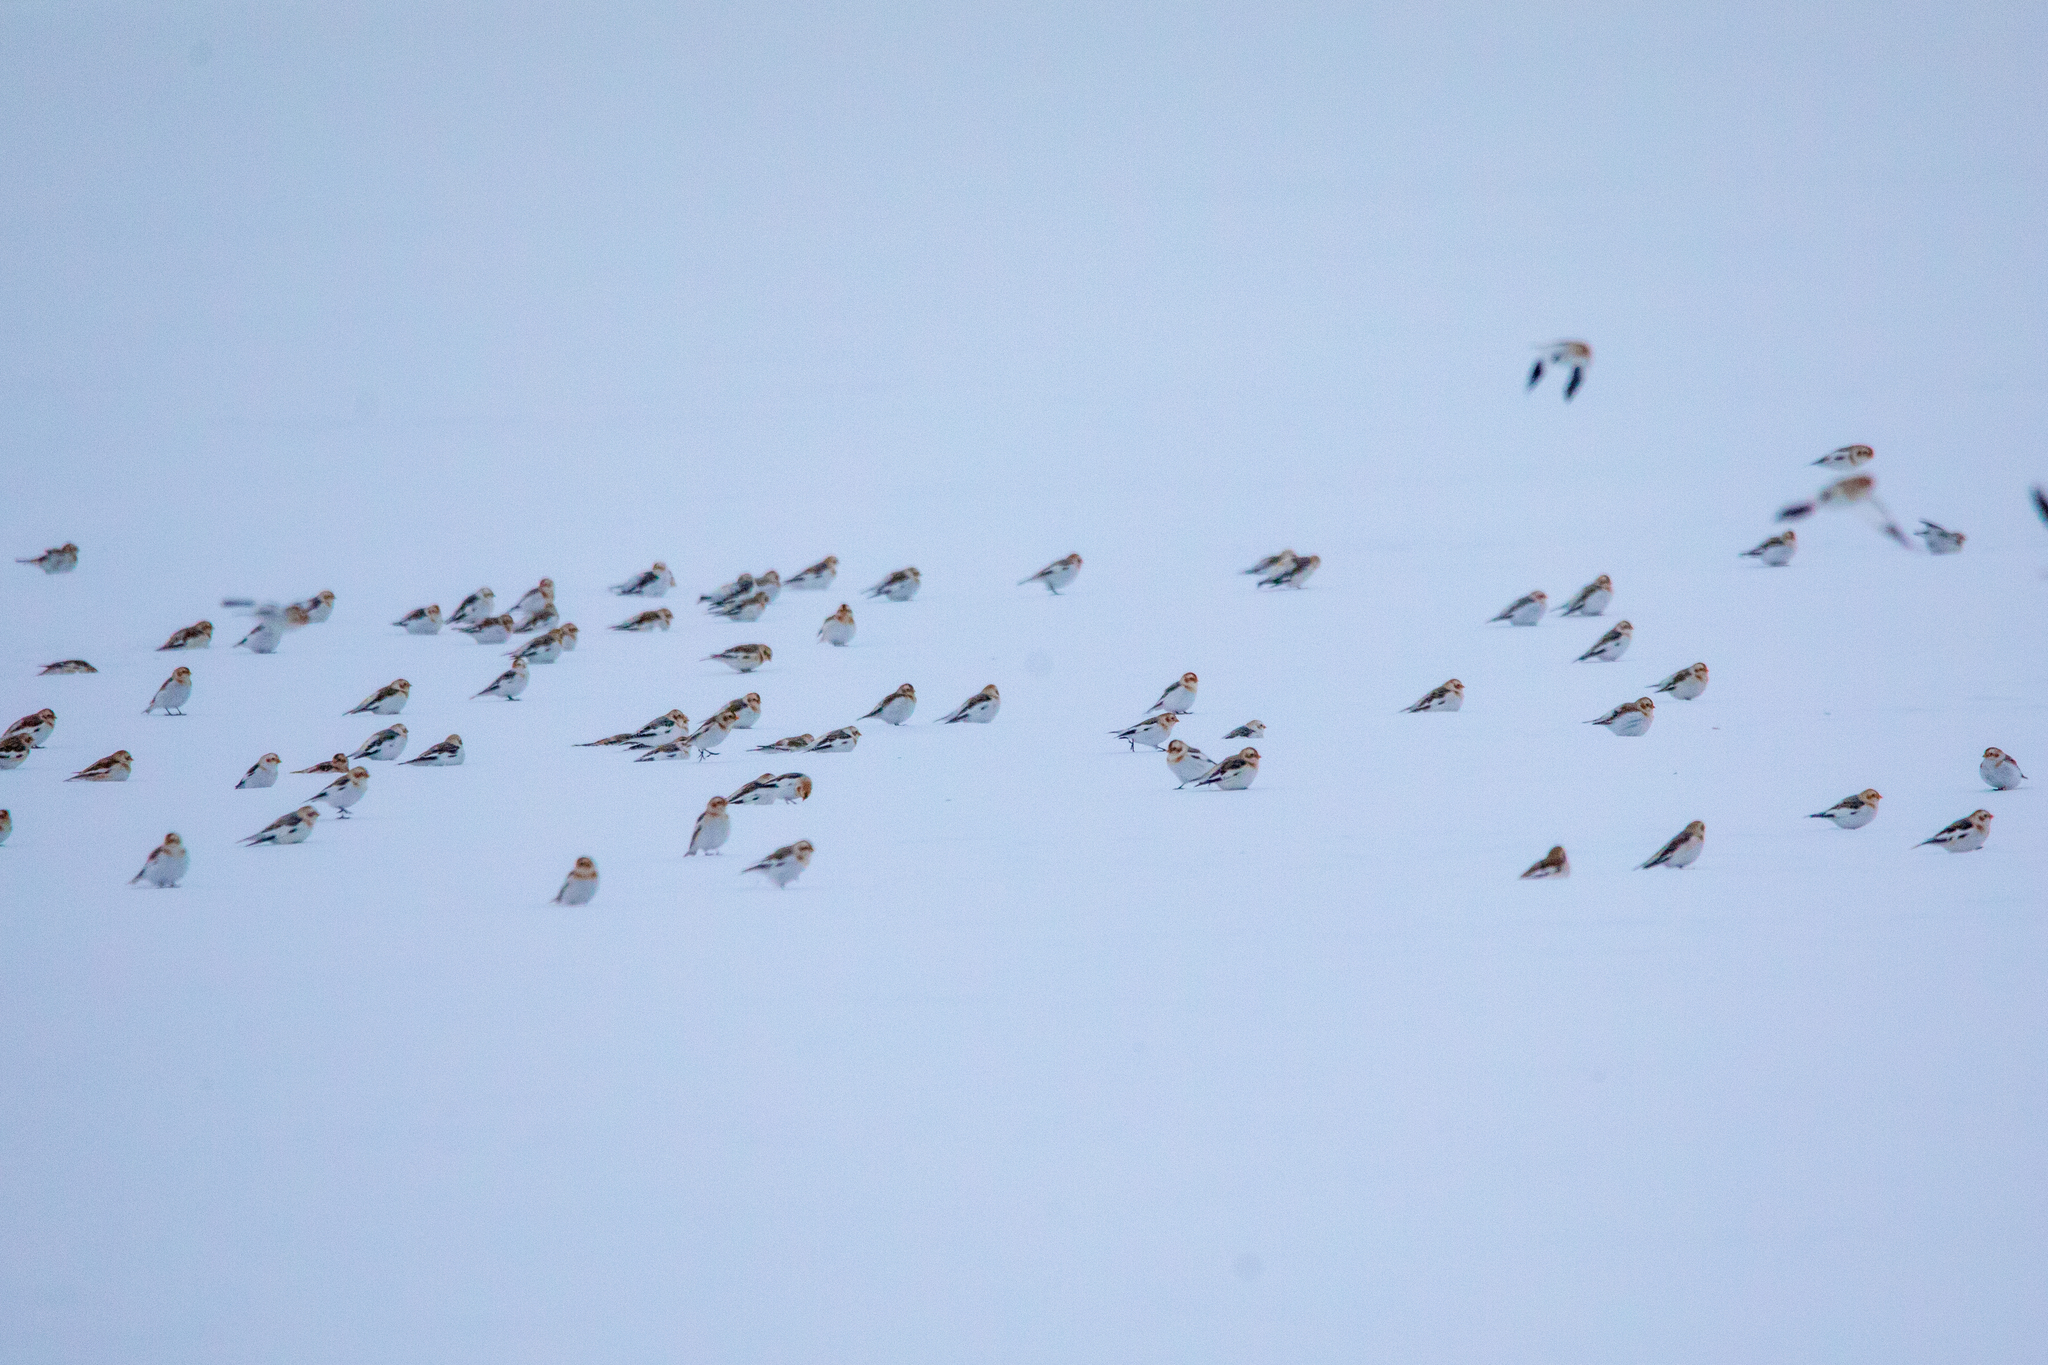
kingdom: Animalia
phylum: Chordata
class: Aves
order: Passeriformes
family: Calcariidae
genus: Plectrophenax
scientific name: Plectrophenax nivalis
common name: Snow bunting
